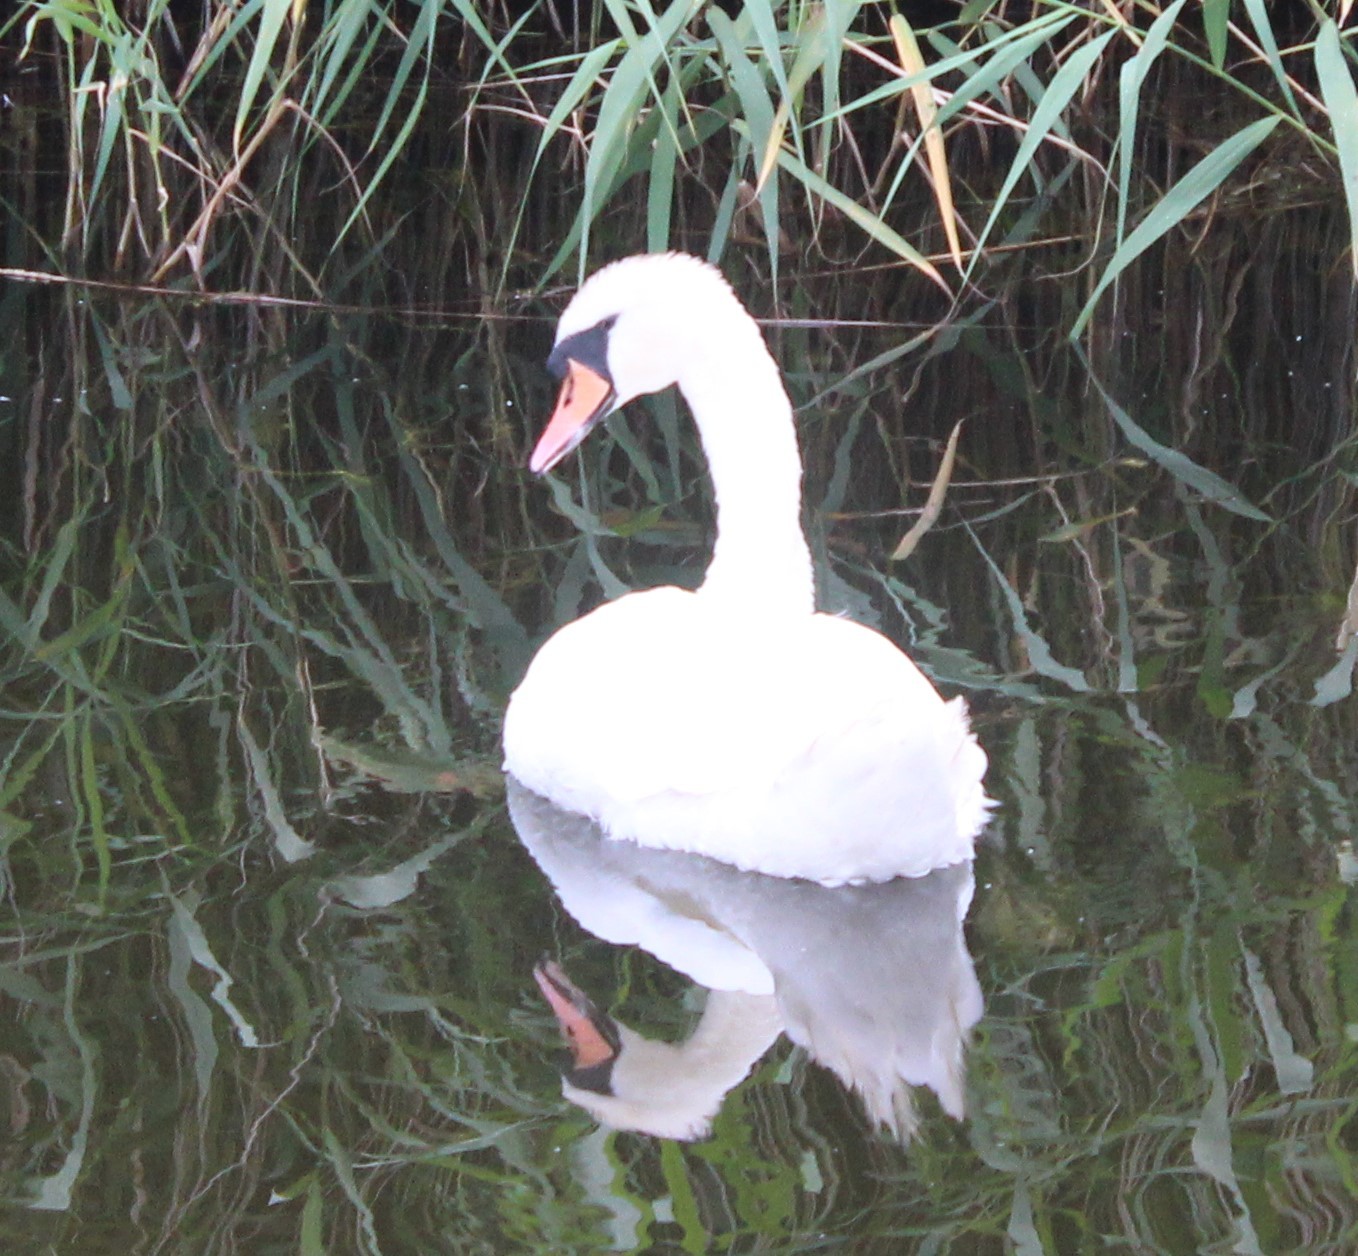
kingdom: Animalia
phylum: Chordata
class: Aves
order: Anseriformes
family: Anatidae
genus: Cygnus
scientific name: Cygnus olor
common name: Mute swan
